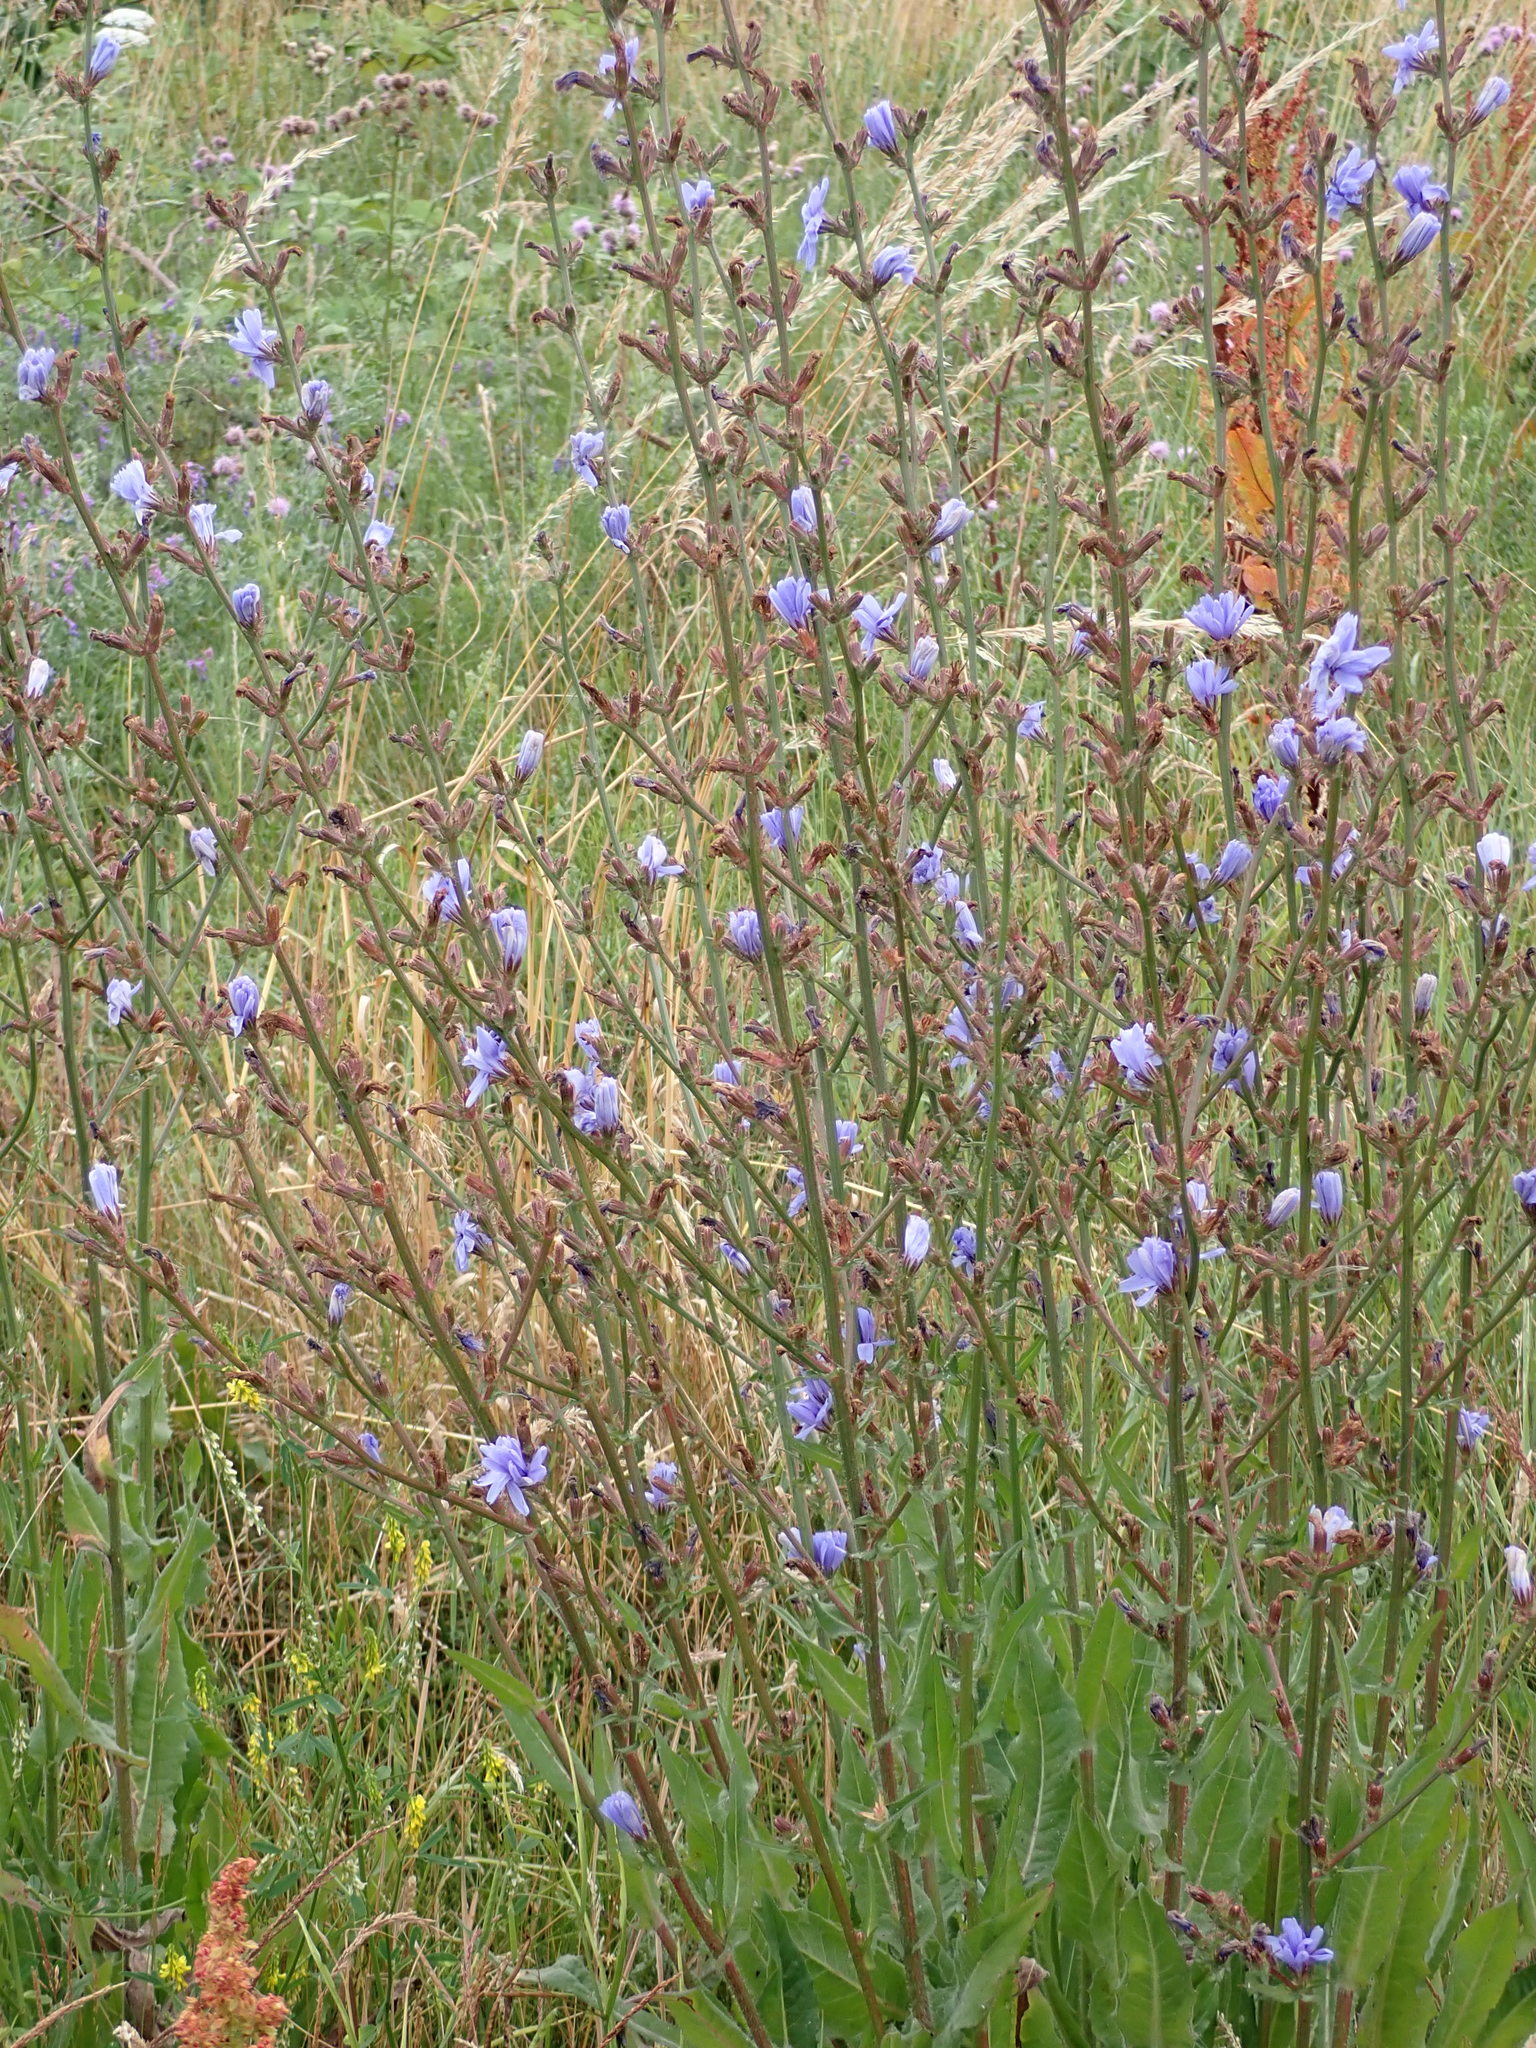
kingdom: Plantae
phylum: Tracheophyta
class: Magnoliopsida
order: Asterales
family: Asteraceae
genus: Cichorium
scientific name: Cichorium intybus
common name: Chicory
